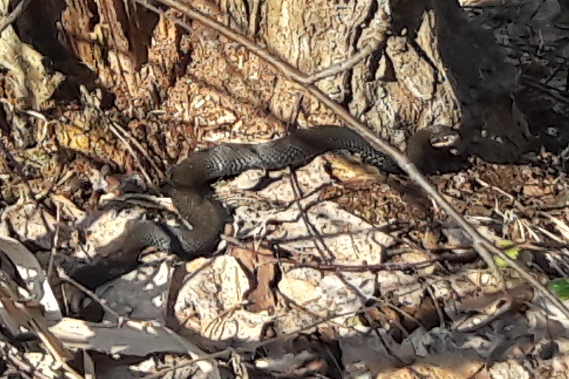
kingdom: Animalia
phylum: Chordata
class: Squamata
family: Viperidae
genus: Vipera
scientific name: Vipera berus
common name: Adder
